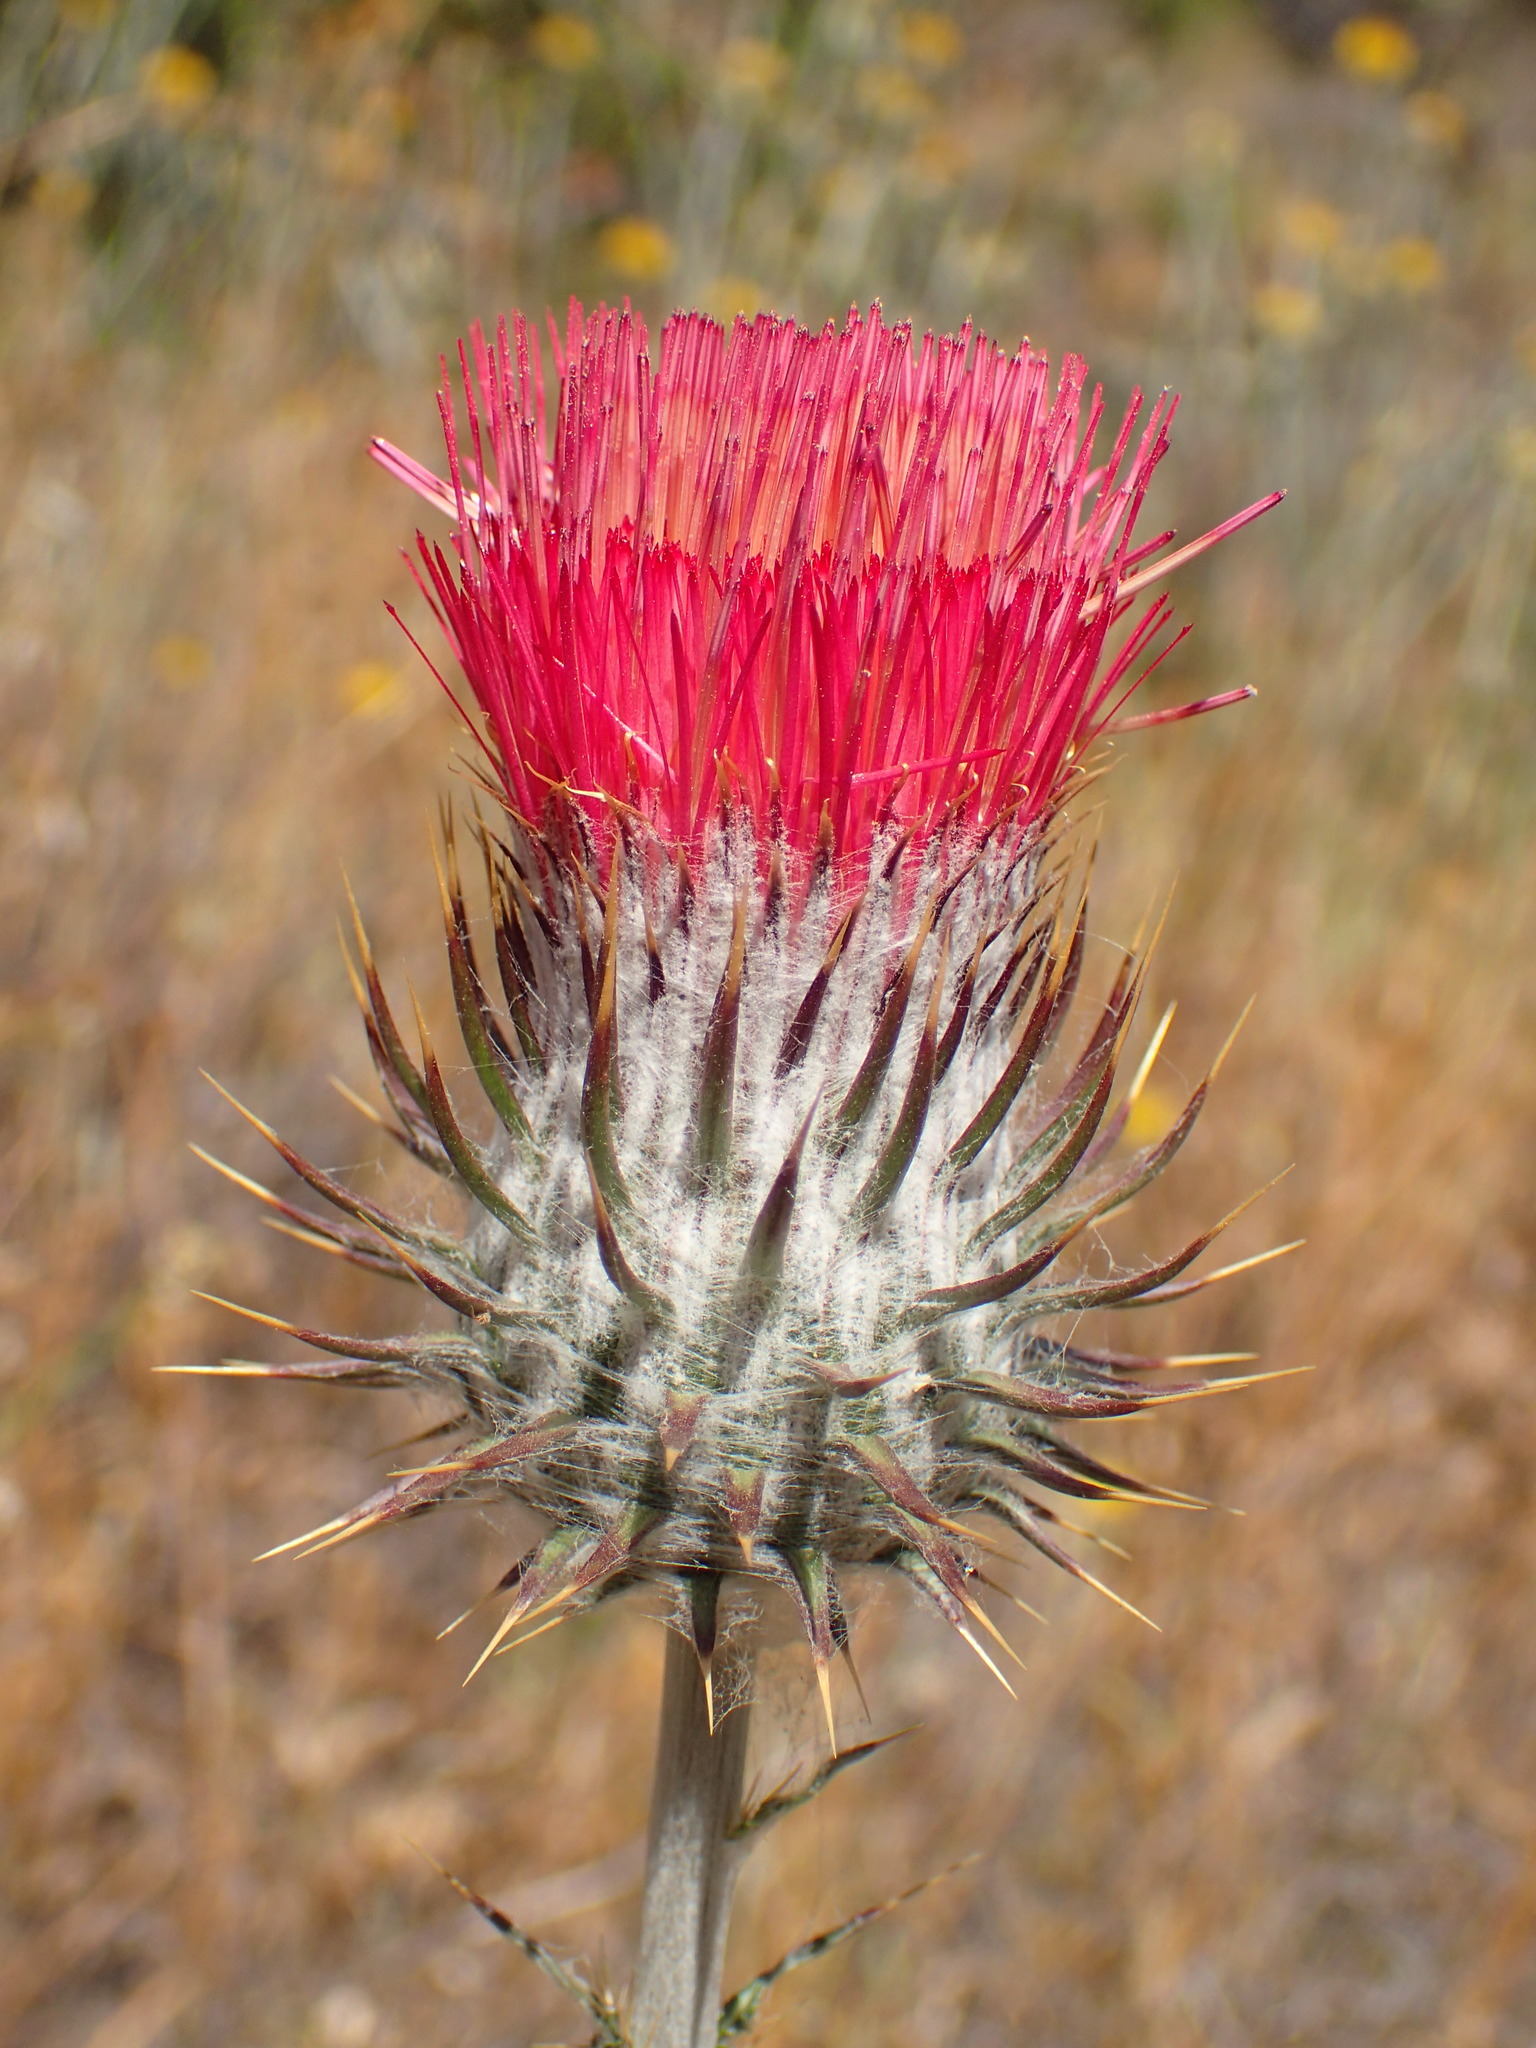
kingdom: Plantae
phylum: Tracheophyta
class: Magnoliopsida
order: Asterales
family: Asteraceae
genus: Cirsium
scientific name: Cirsium occidentale
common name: Western thistle
